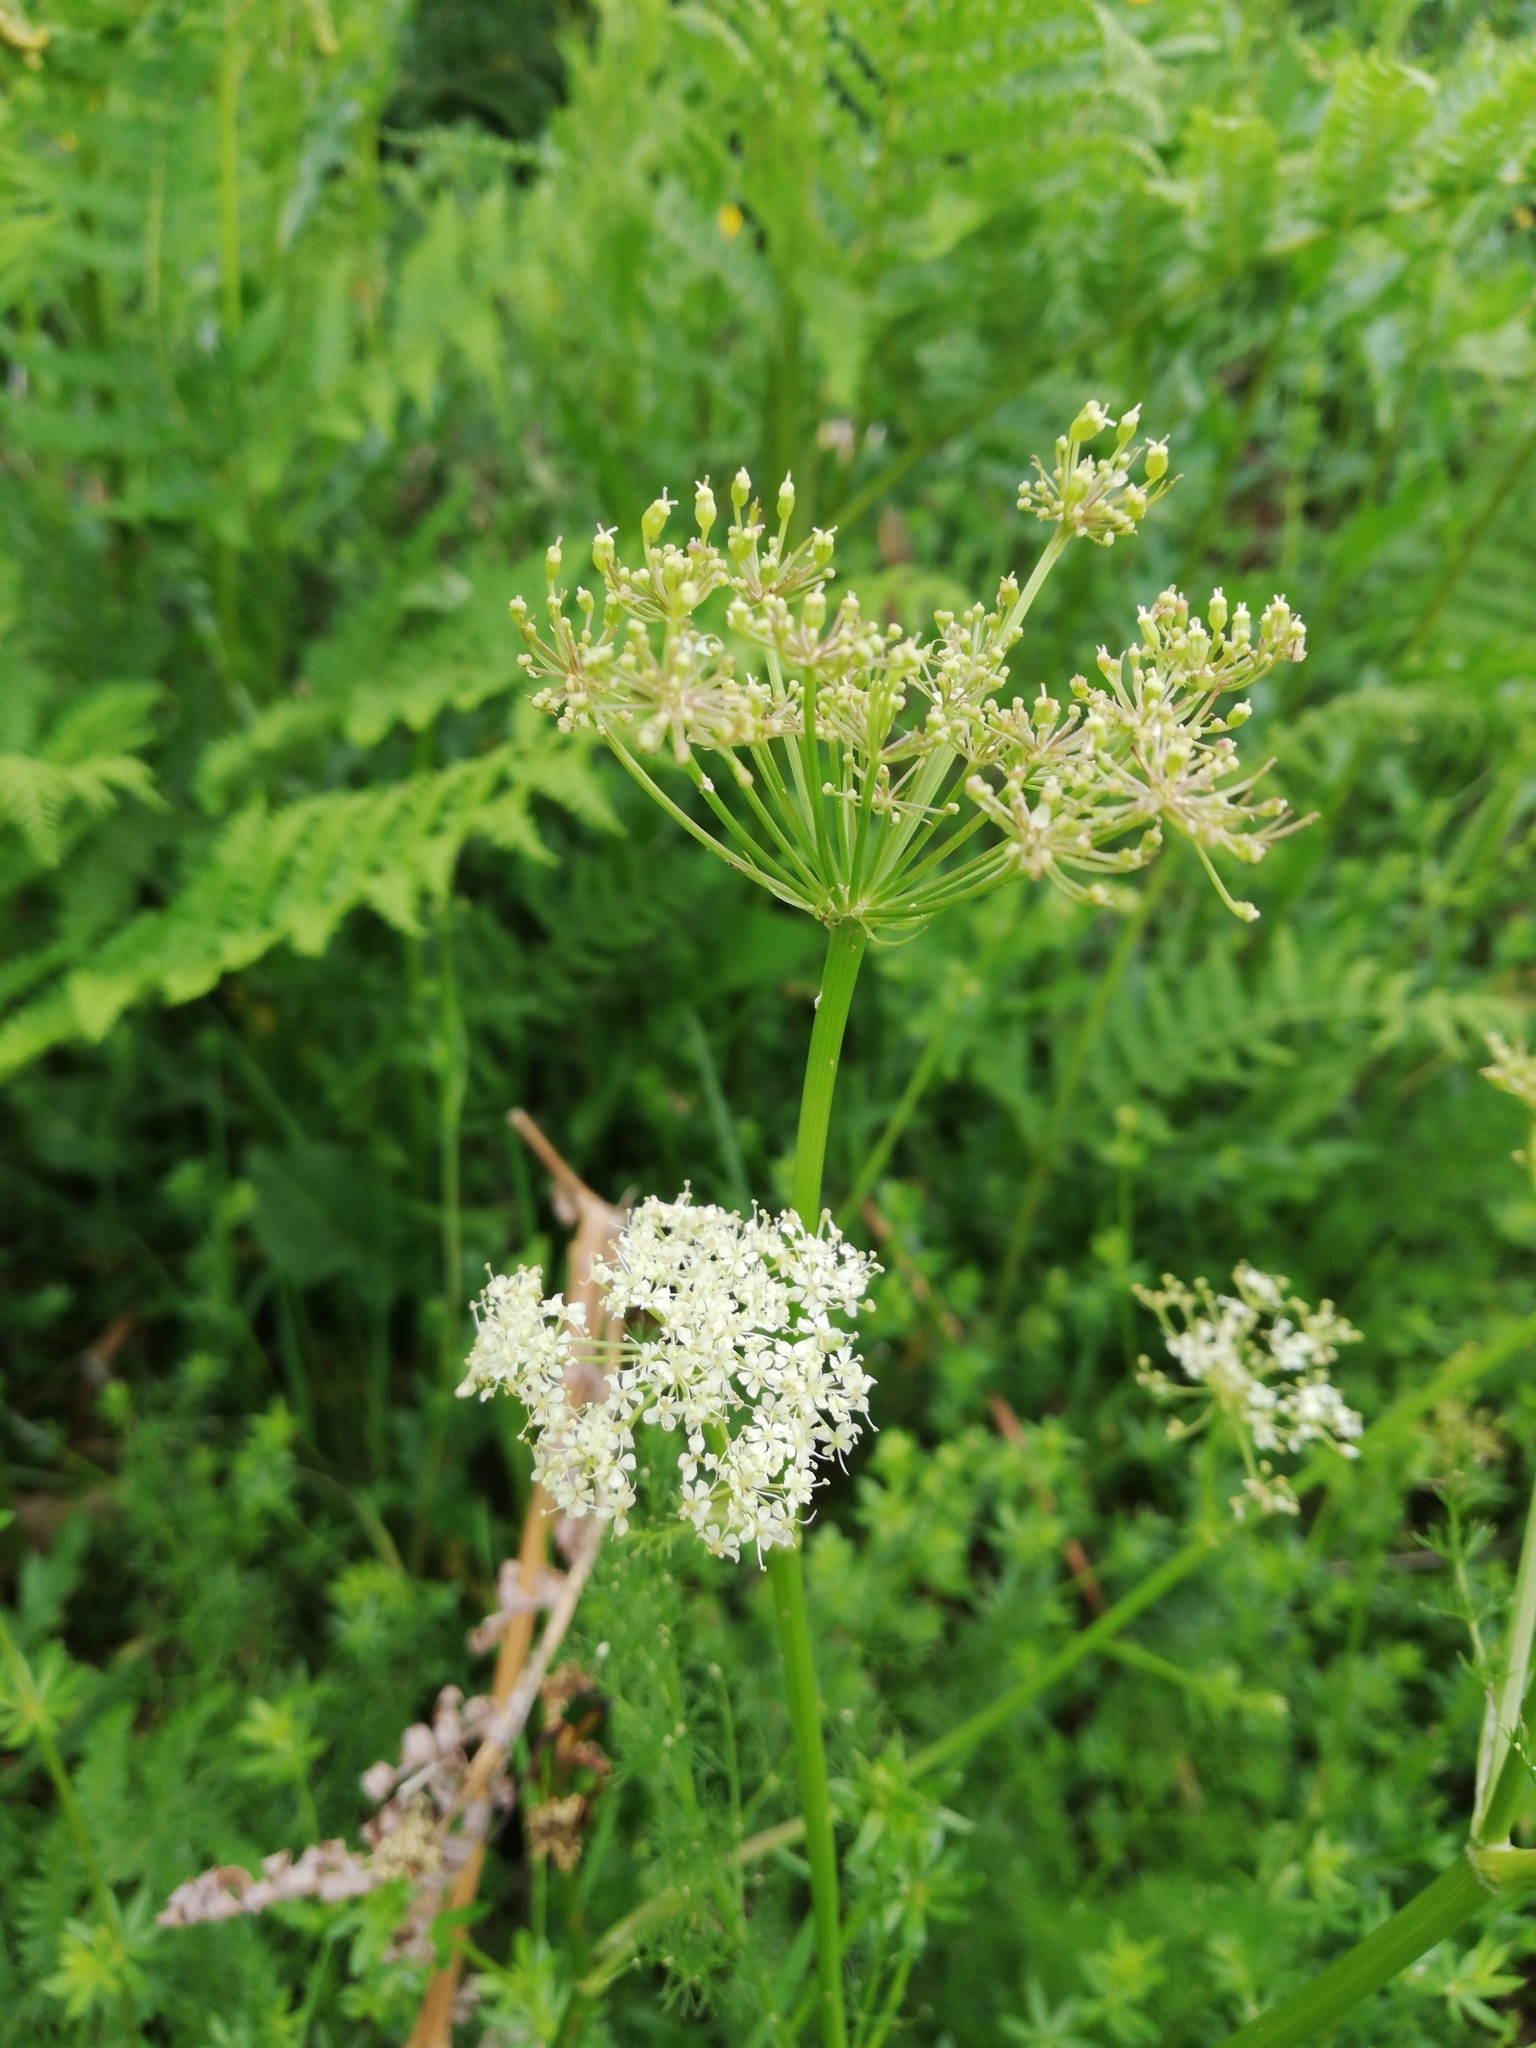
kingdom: Plantae
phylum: Tracheophyta
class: Magnoliopsida
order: Apiales
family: Apiaceae
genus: Meum
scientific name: Meum athamanticum
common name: Spignel
